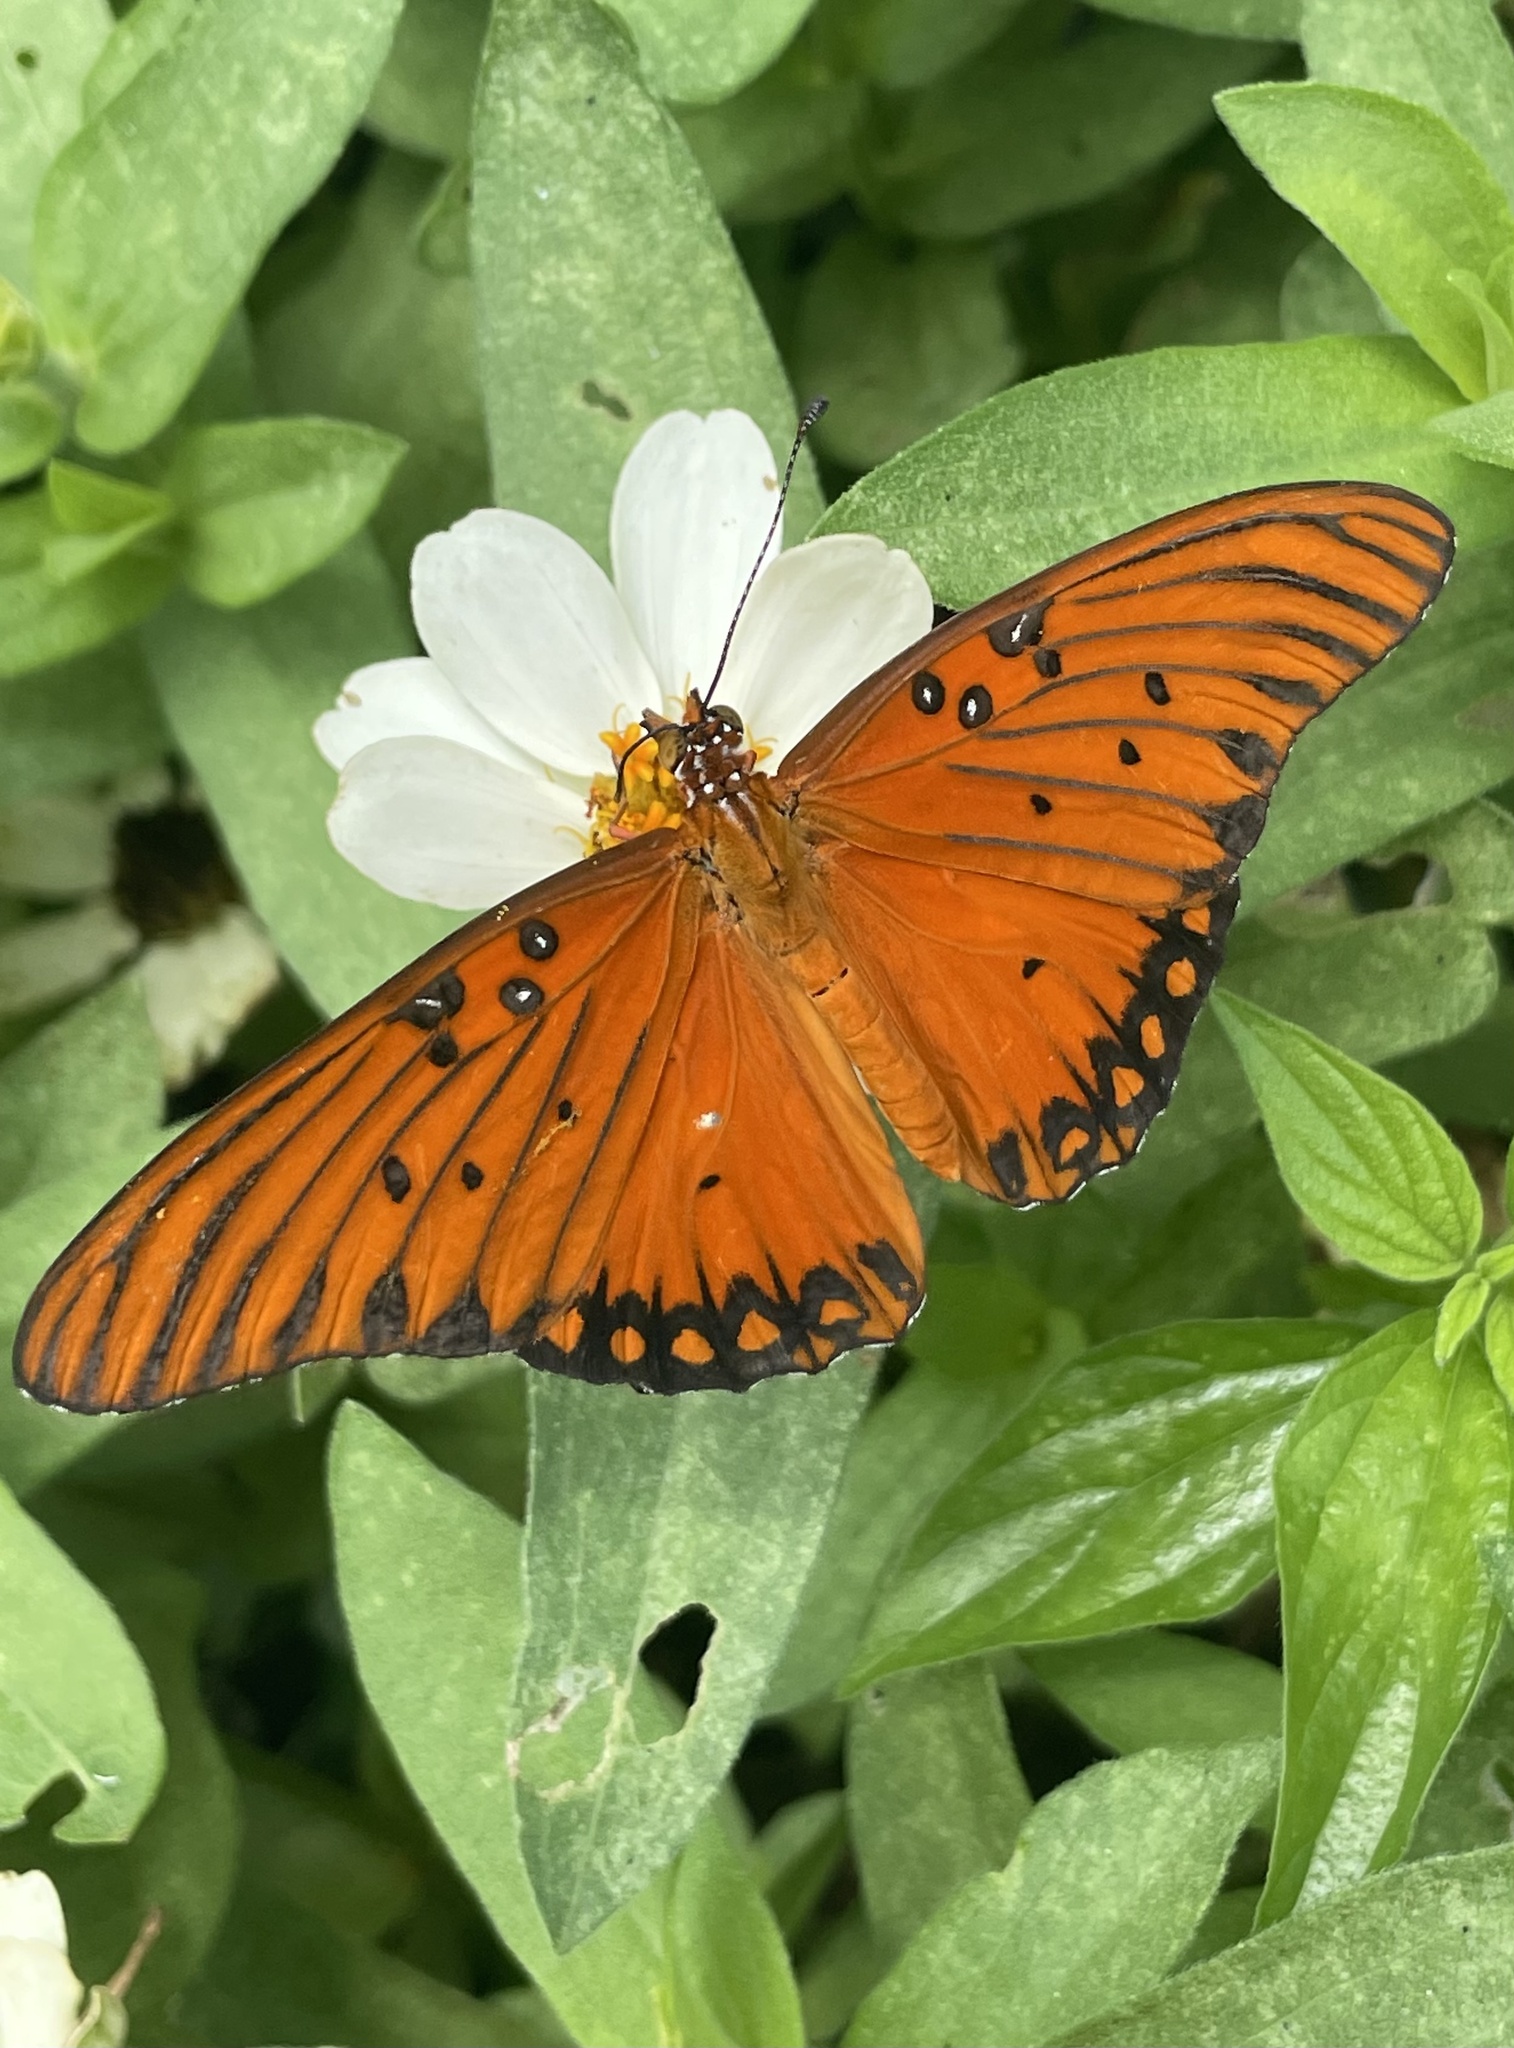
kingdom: Animalia
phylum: Arthropoda
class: Insecta
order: Lepidoptera
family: Nymphalidae
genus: Dione
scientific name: Dione vanillae
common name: Gulf fritillary
